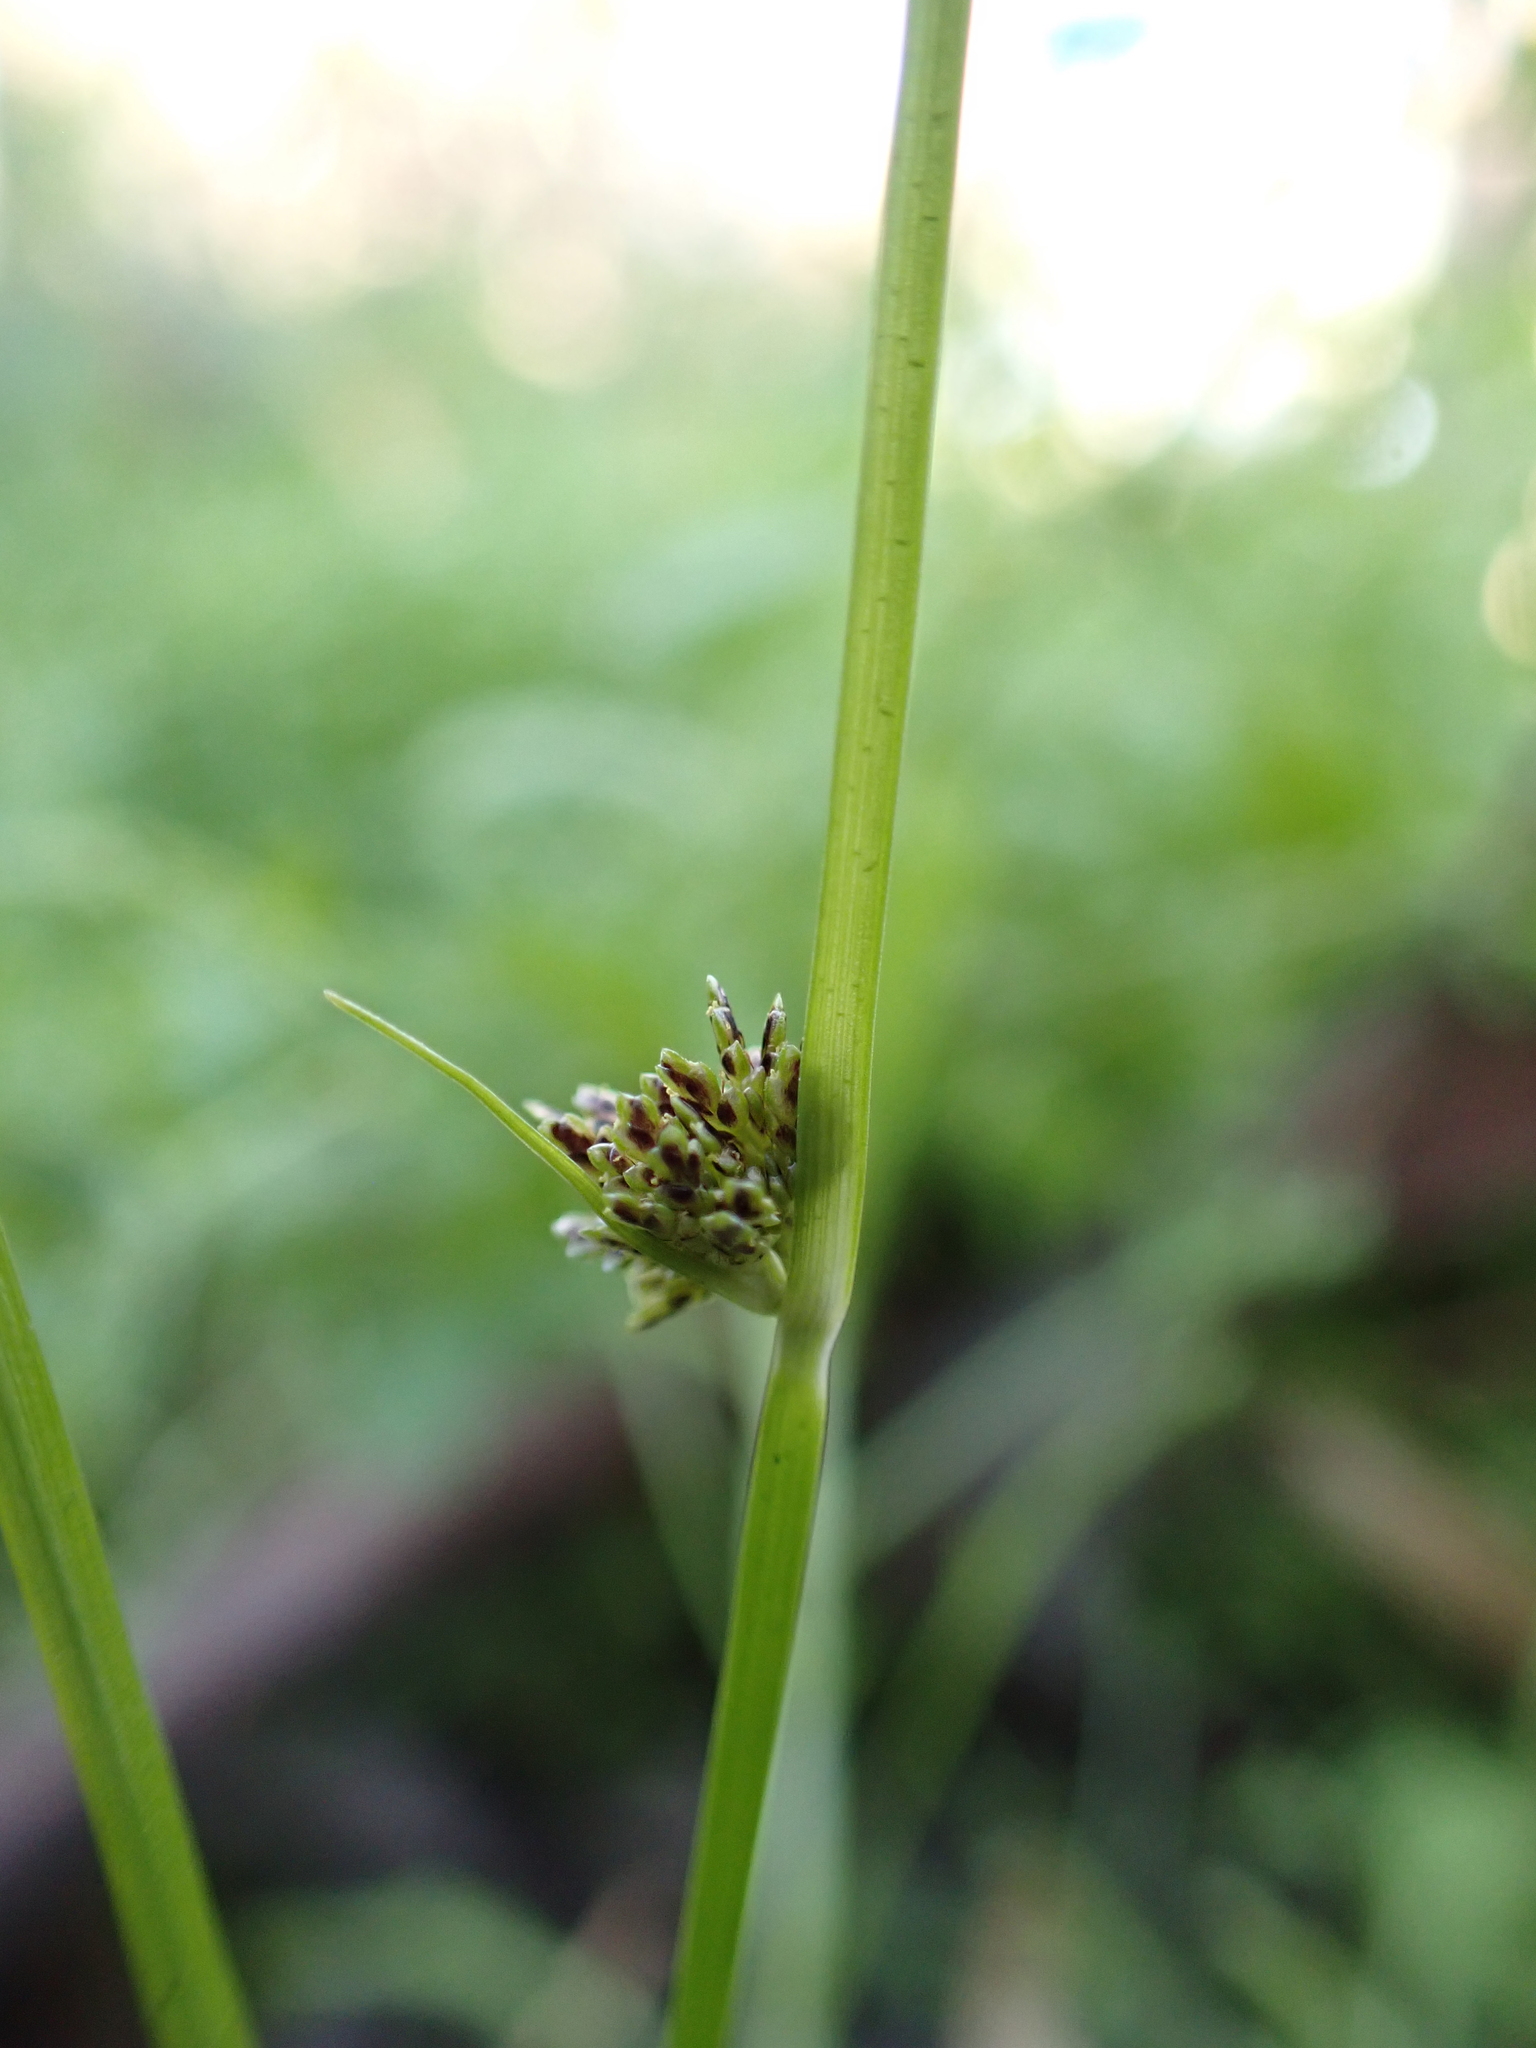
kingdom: Plantae
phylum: Tracheophyta
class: Liliopsida
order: Poales
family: Cyperaceae
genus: Cyperus
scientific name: Cyperus difformis
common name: Variable flatsedge
